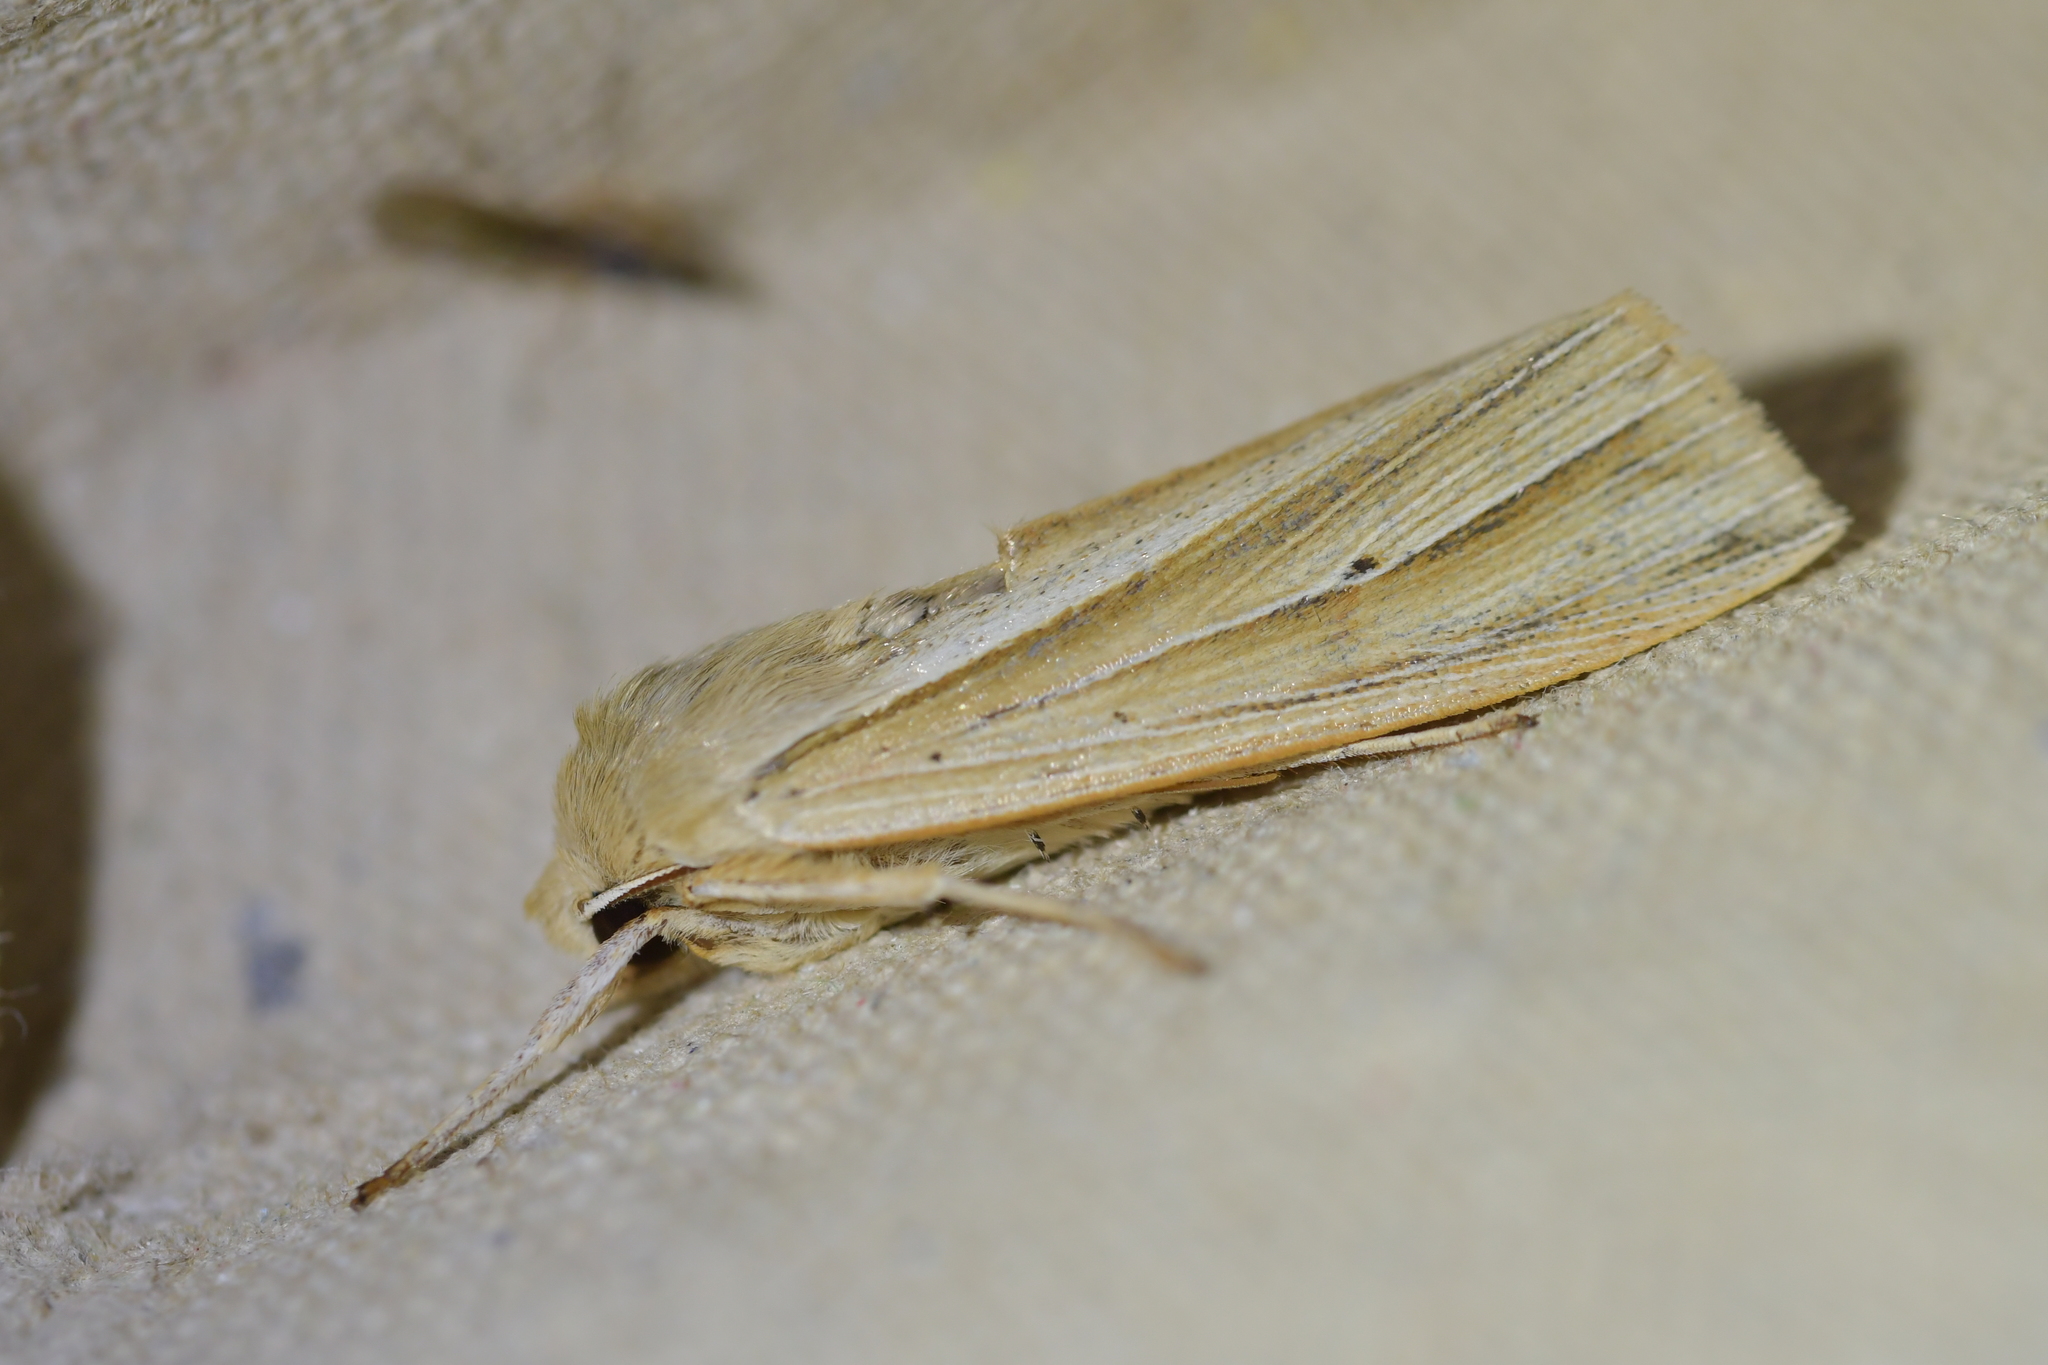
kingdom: Animalia
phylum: Arthropoda
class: Insecta
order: Lepidoptera
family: Noctuidae
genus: Ichneutica
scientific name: Ichneutica sulcana
